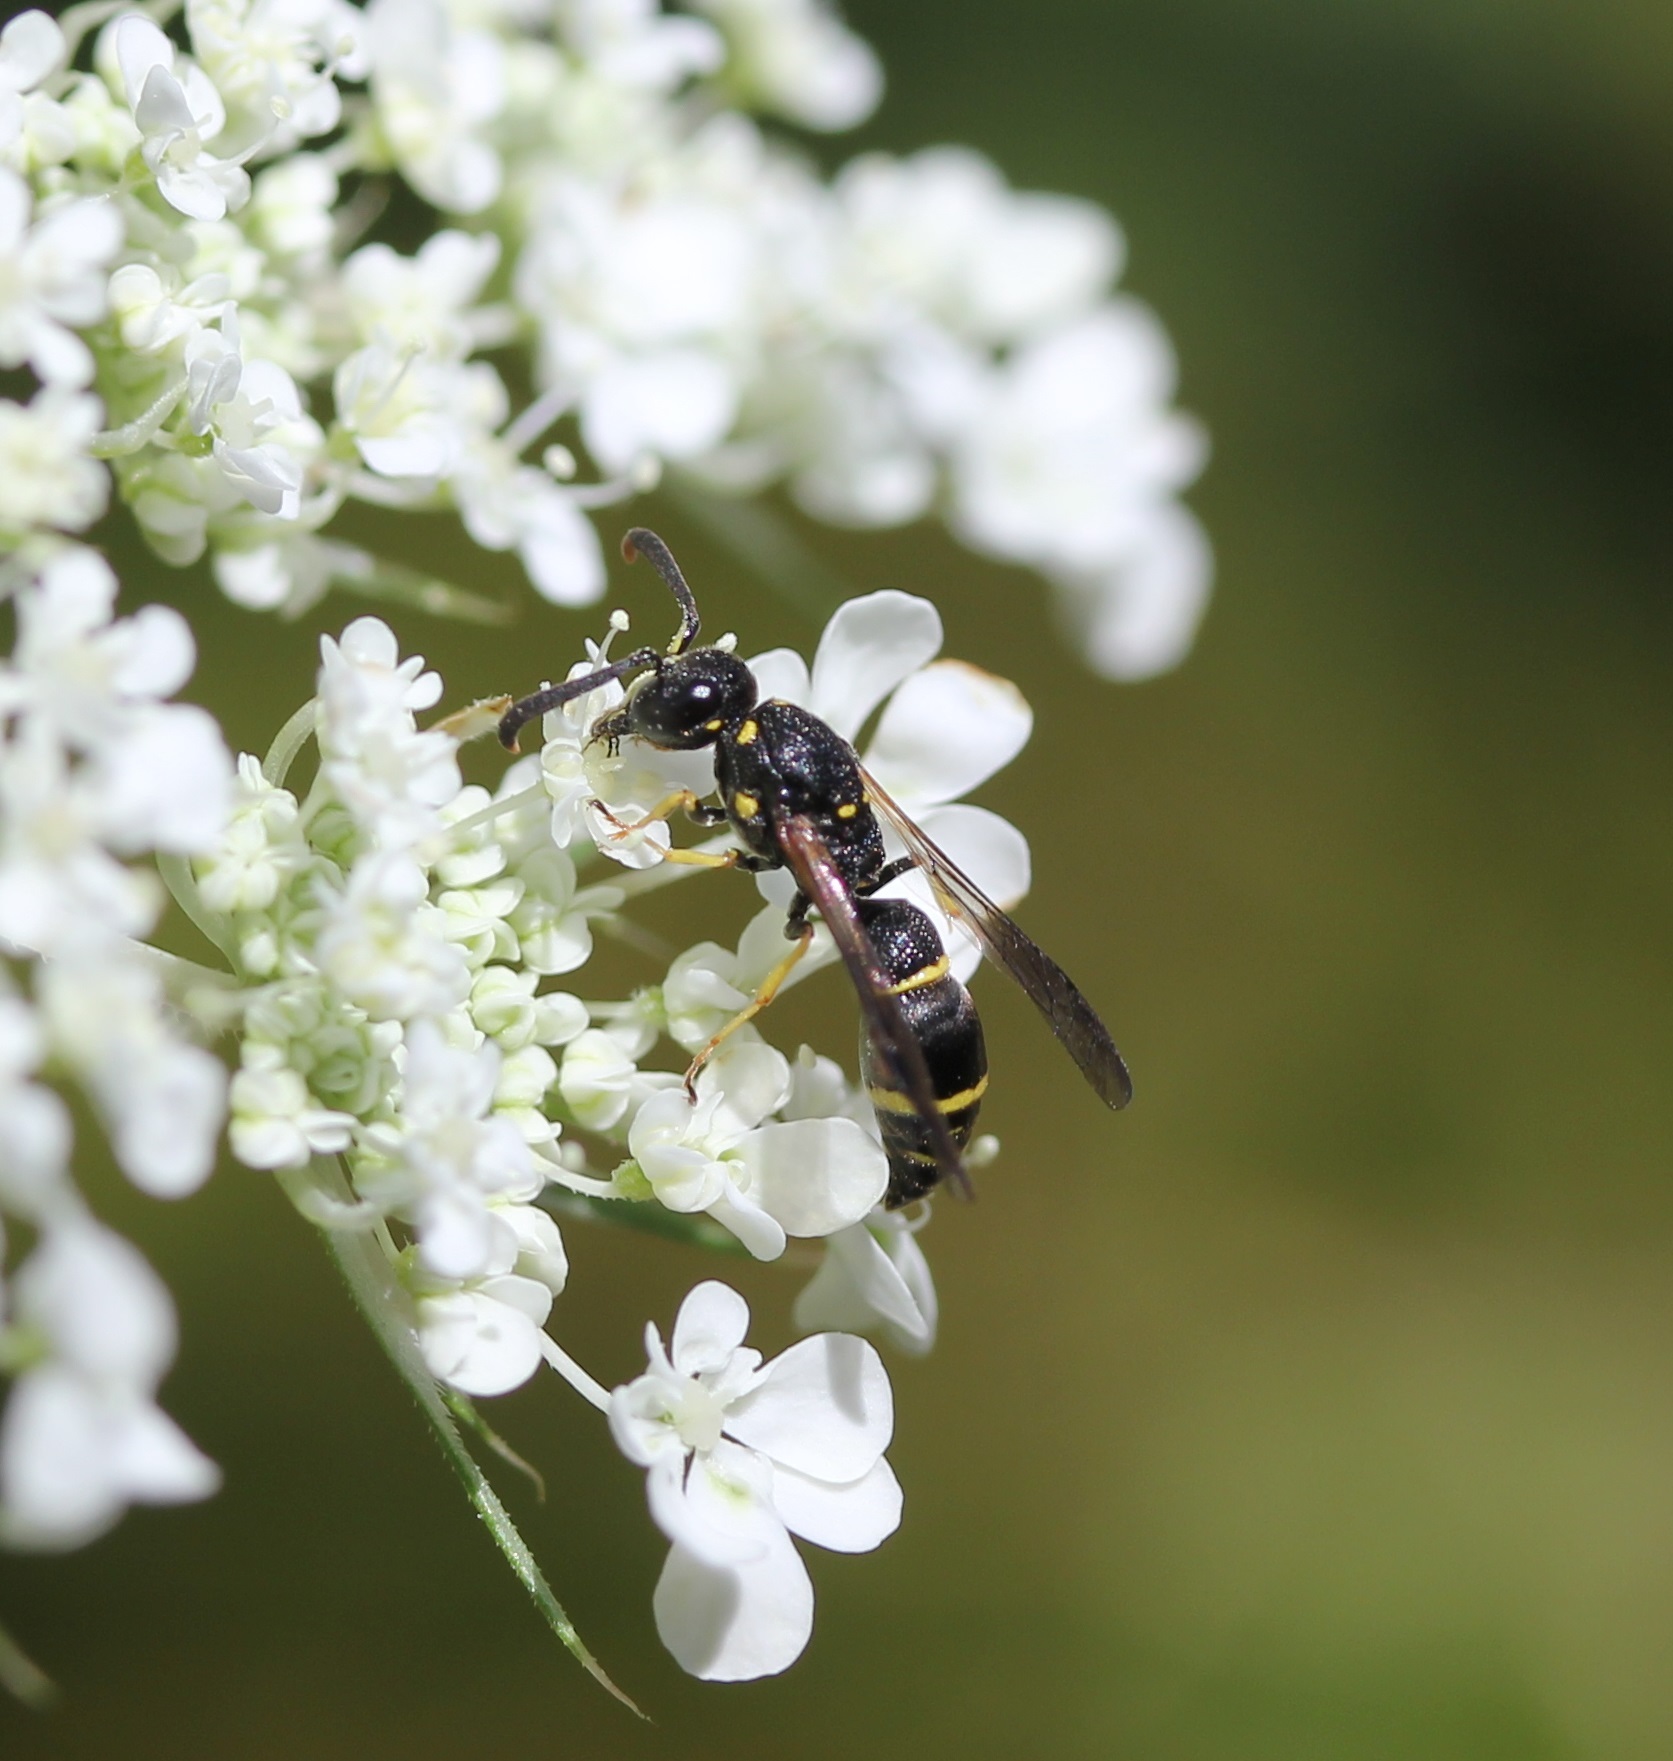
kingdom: Animalia
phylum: Arthropoda
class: Insecta
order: Hymenoptera
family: Eumenidae
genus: Symmorphus
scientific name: Symmorphus
